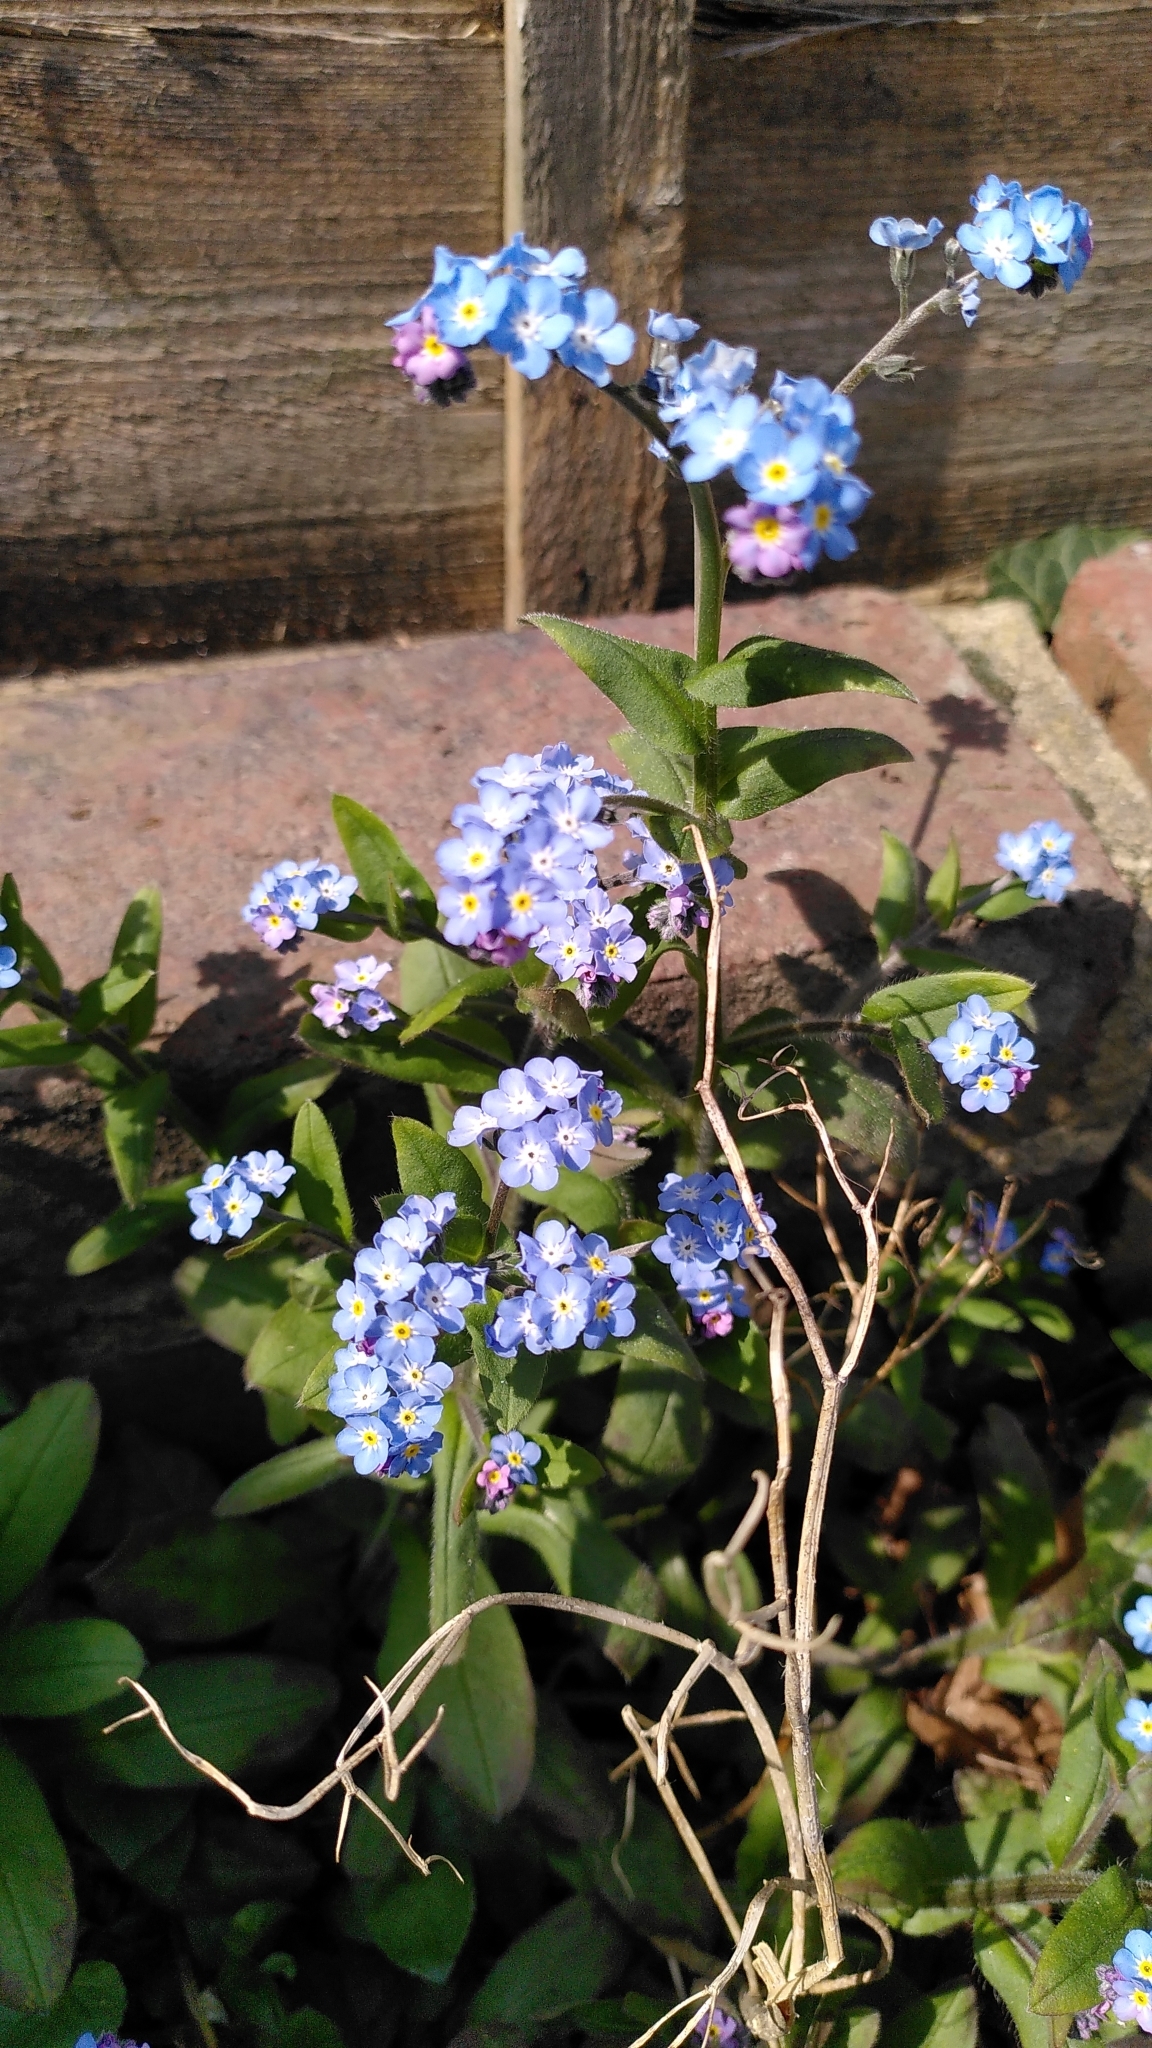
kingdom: Plantae
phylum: Tracheophyta
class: Magnoliopsida
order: Boraginales
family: Boraginaceae
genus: Myosotis
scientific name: Myosotis sylvatica
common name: Wood forget-me-not
